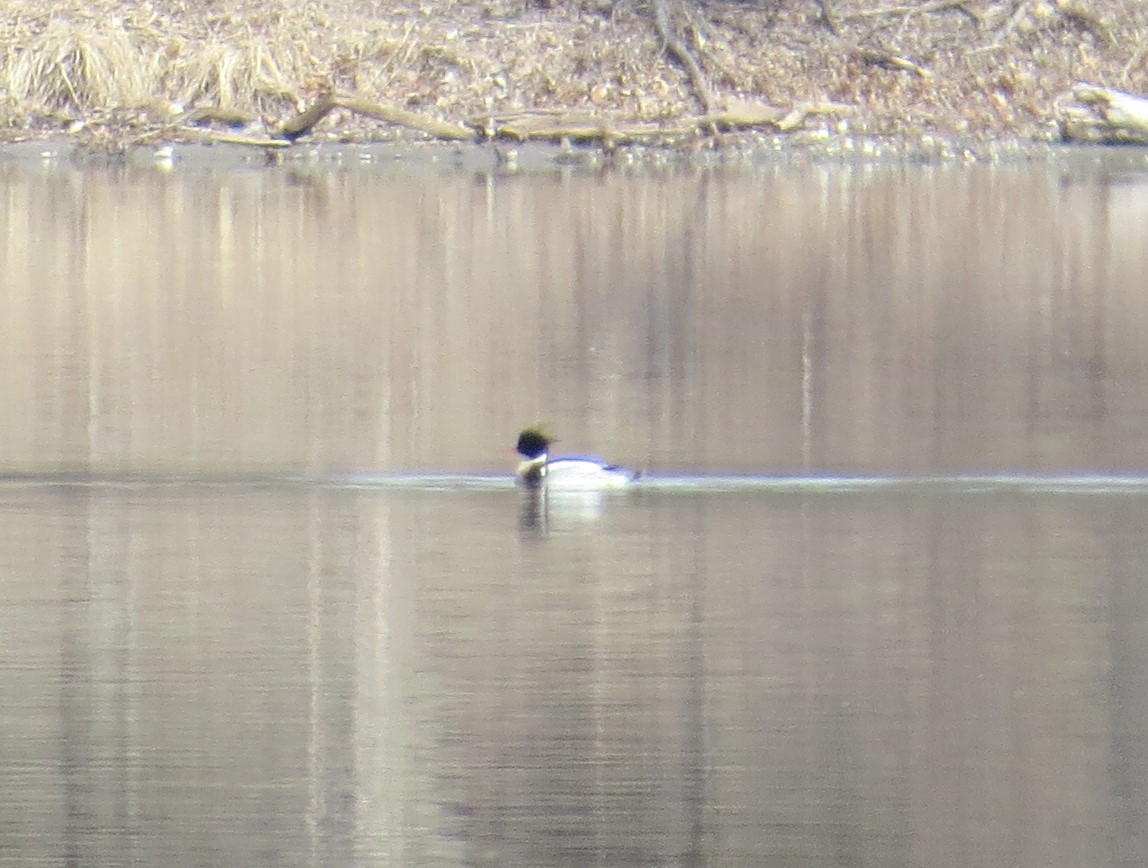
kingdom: Animalia
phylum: Chordata
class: Aves
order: Anseriformes
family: Anatidae
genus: Mergus
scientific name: Mergus serrator
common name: Red-breasted merganser
